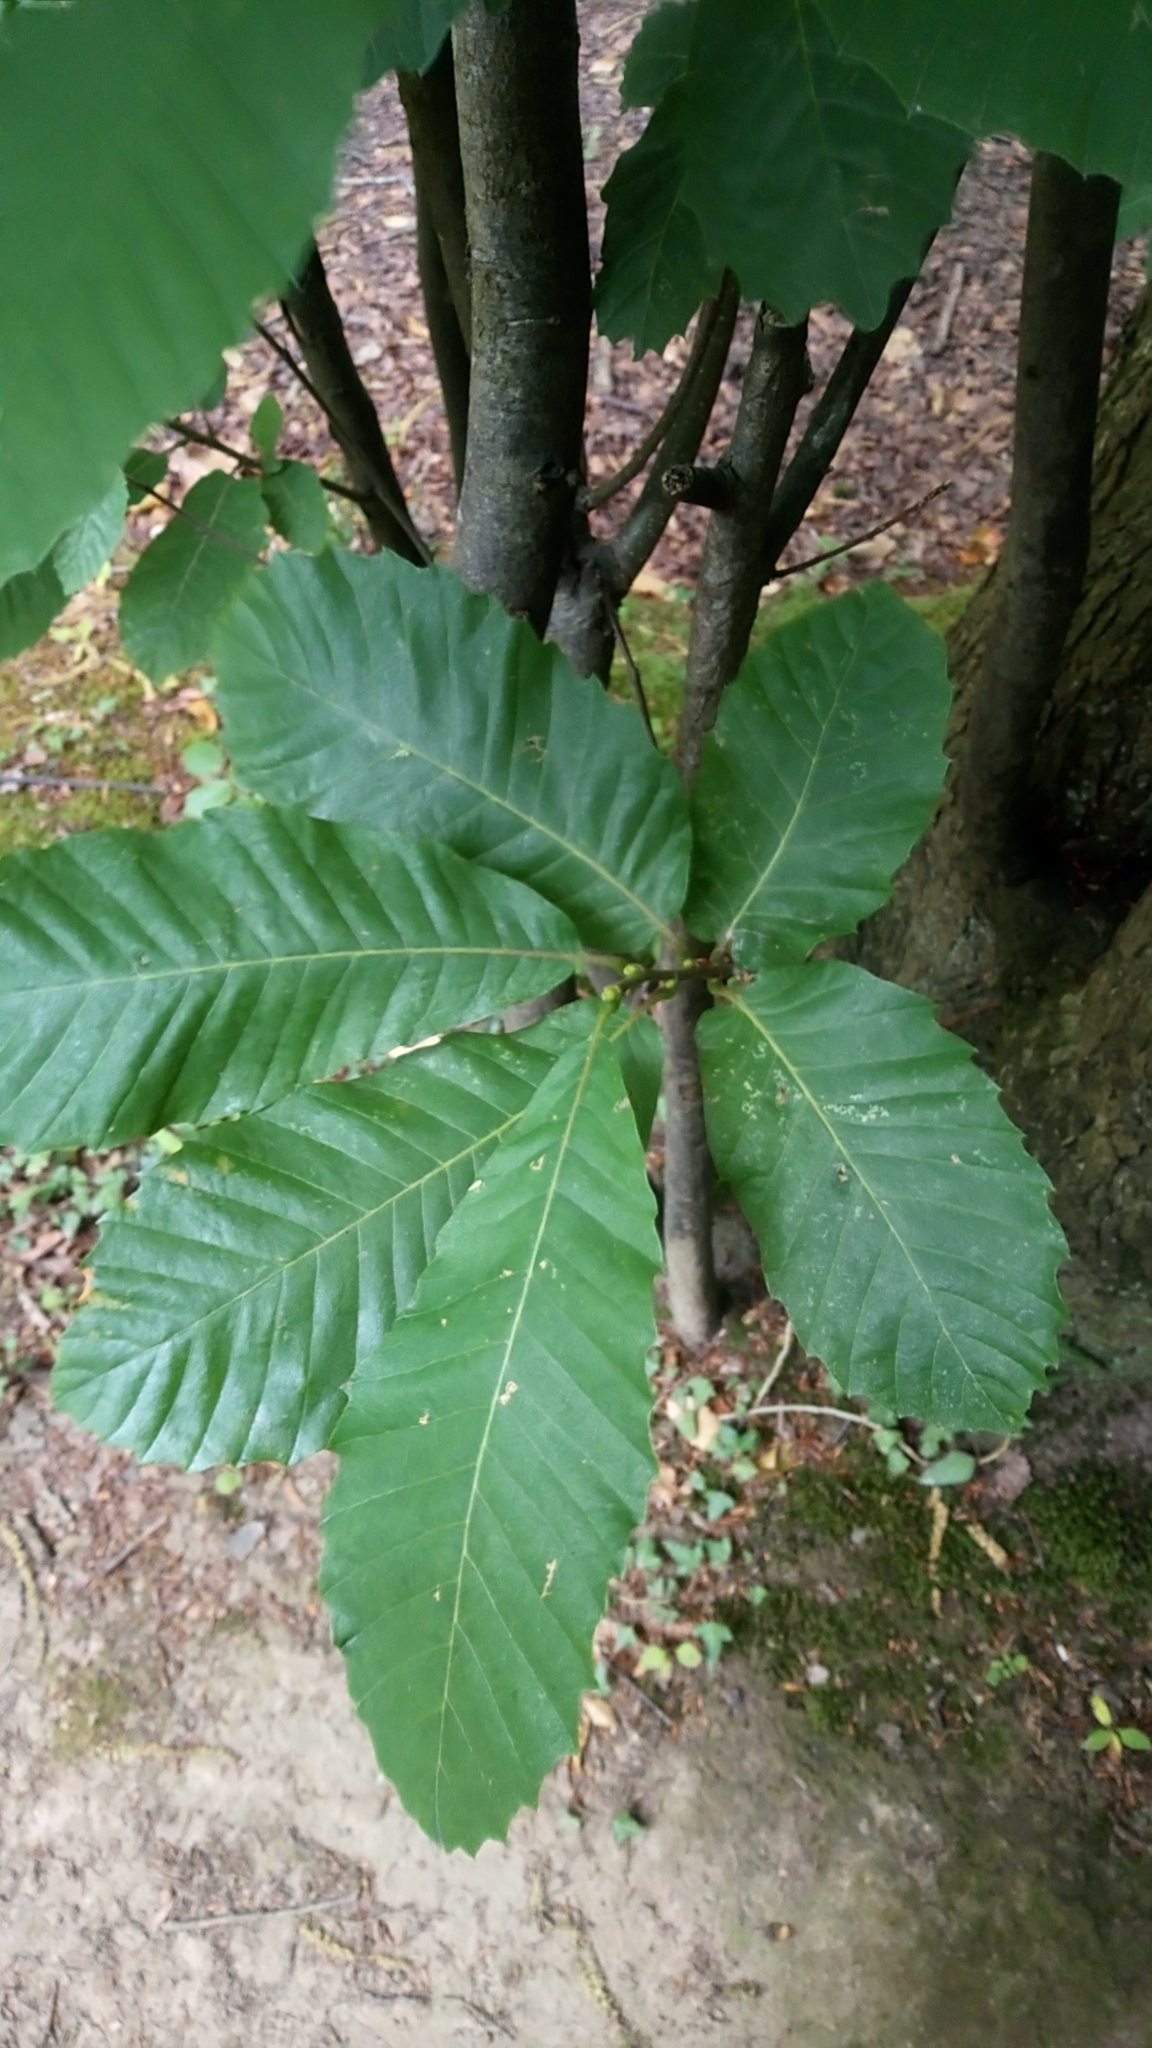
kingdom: Plantae
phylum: Tracheophyta
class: Magnoliopsida
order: Fagales
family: Fagaceae
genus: Castanea
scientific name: Castanea sativa
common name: Sweet chestnut
